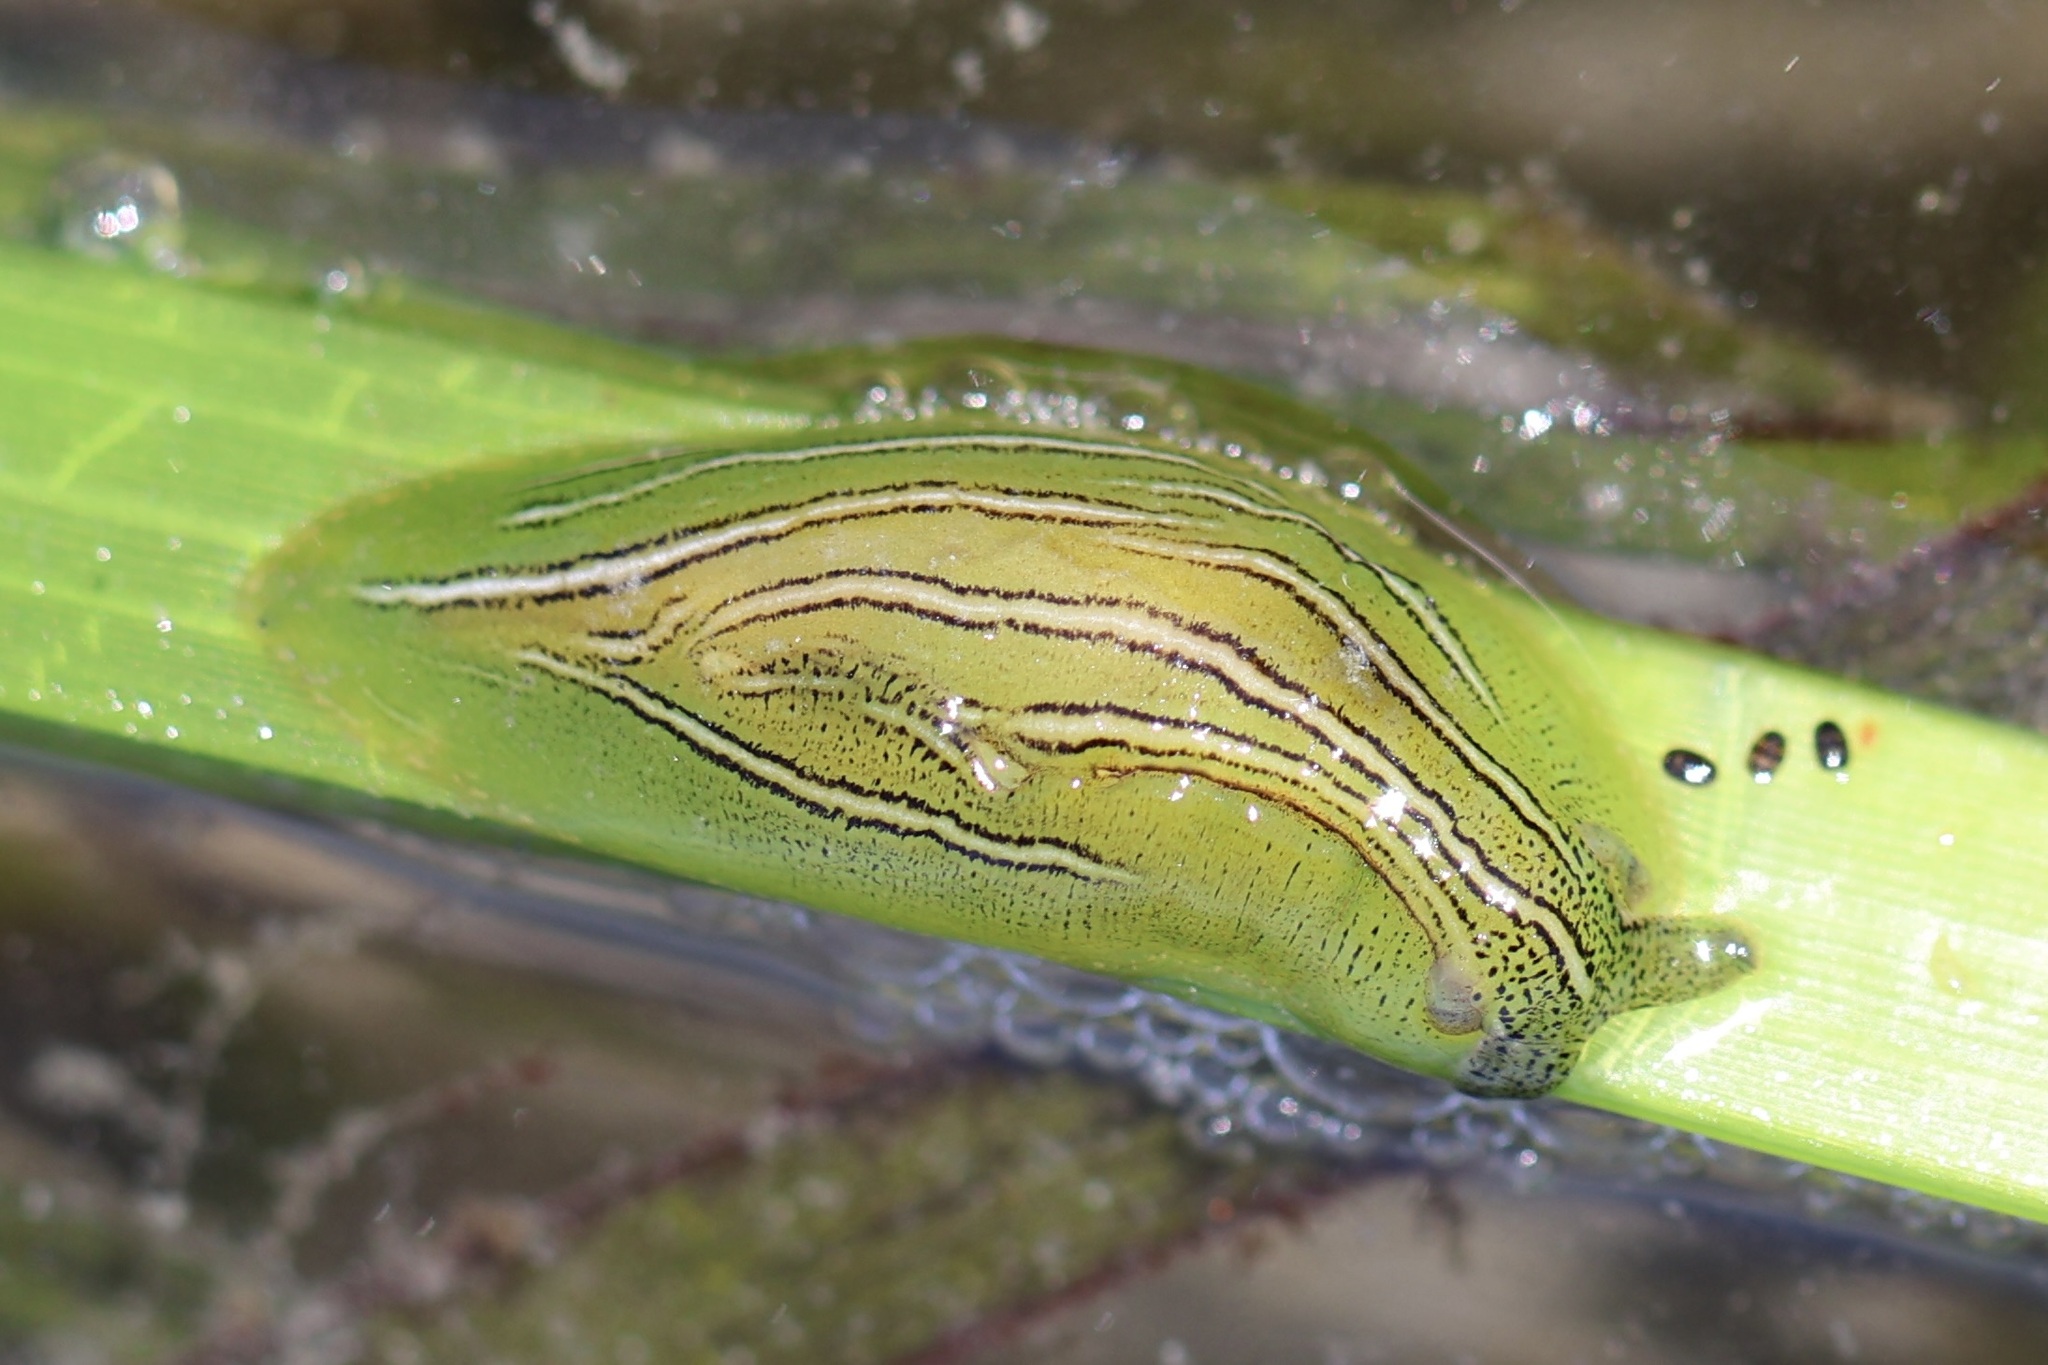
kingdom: Animalia
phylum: Mollusca
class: Gastropoda
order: Aplysiida
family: Aplysiidae
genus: Phyllaplysia
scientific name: Phyllaplysia taylori
